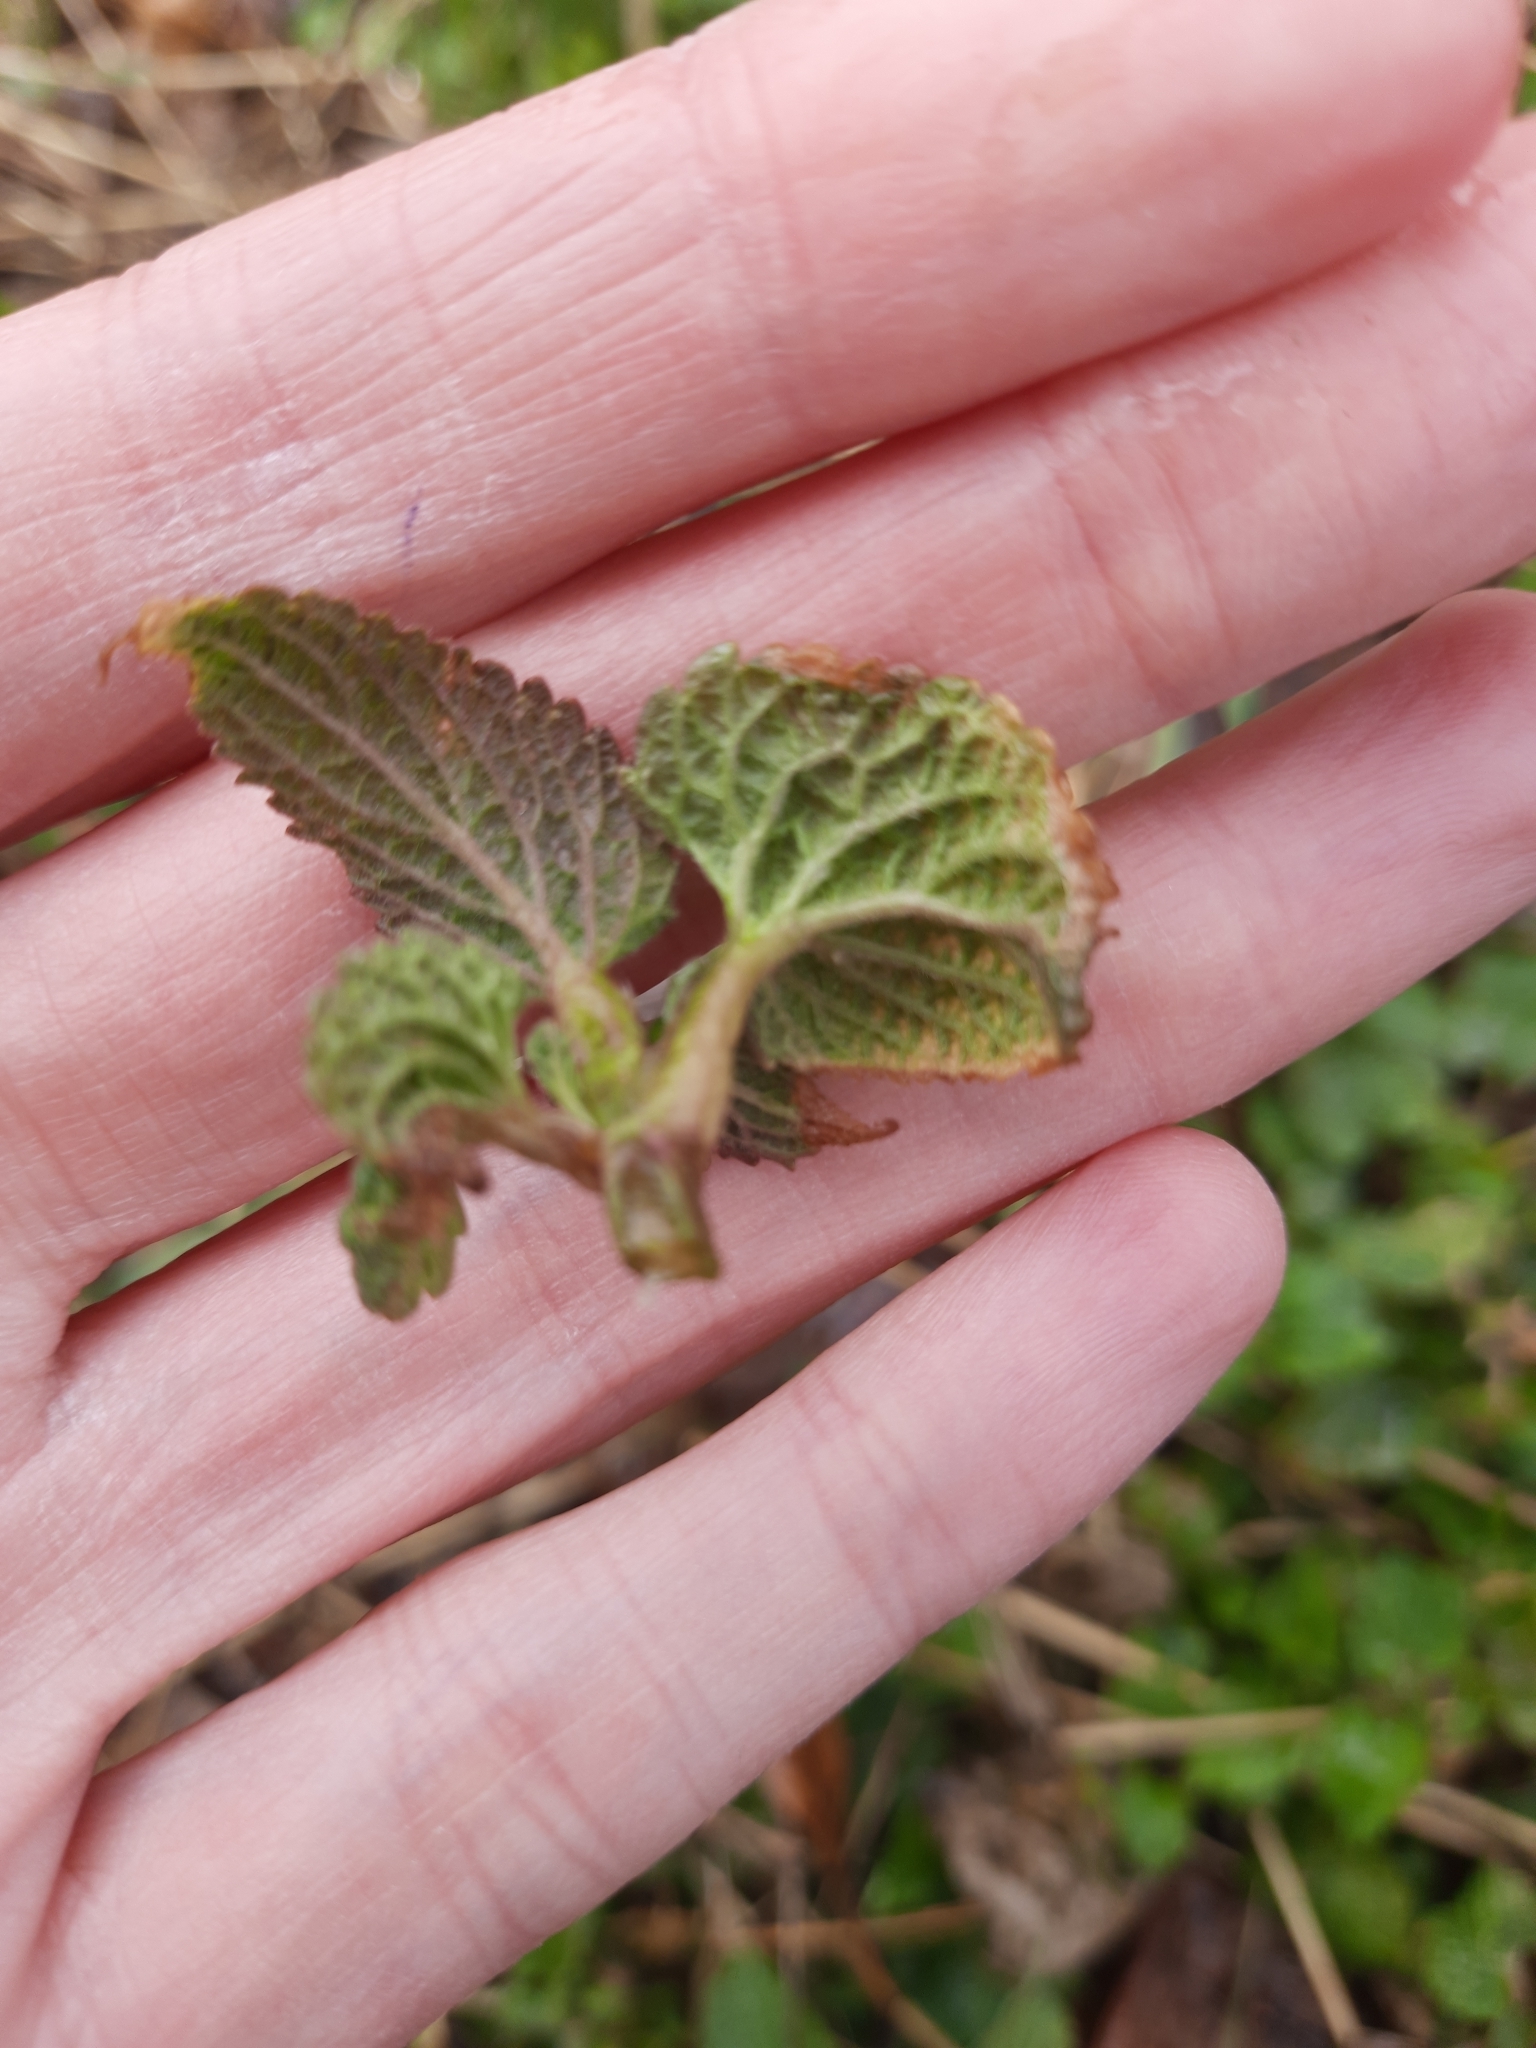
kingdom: Plantae
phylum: Tracheophyta
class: Magnoliopsida
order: Lamiales
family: Lamiaceae
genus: Lamium
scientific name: Lamium album
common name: White dead-nettle
